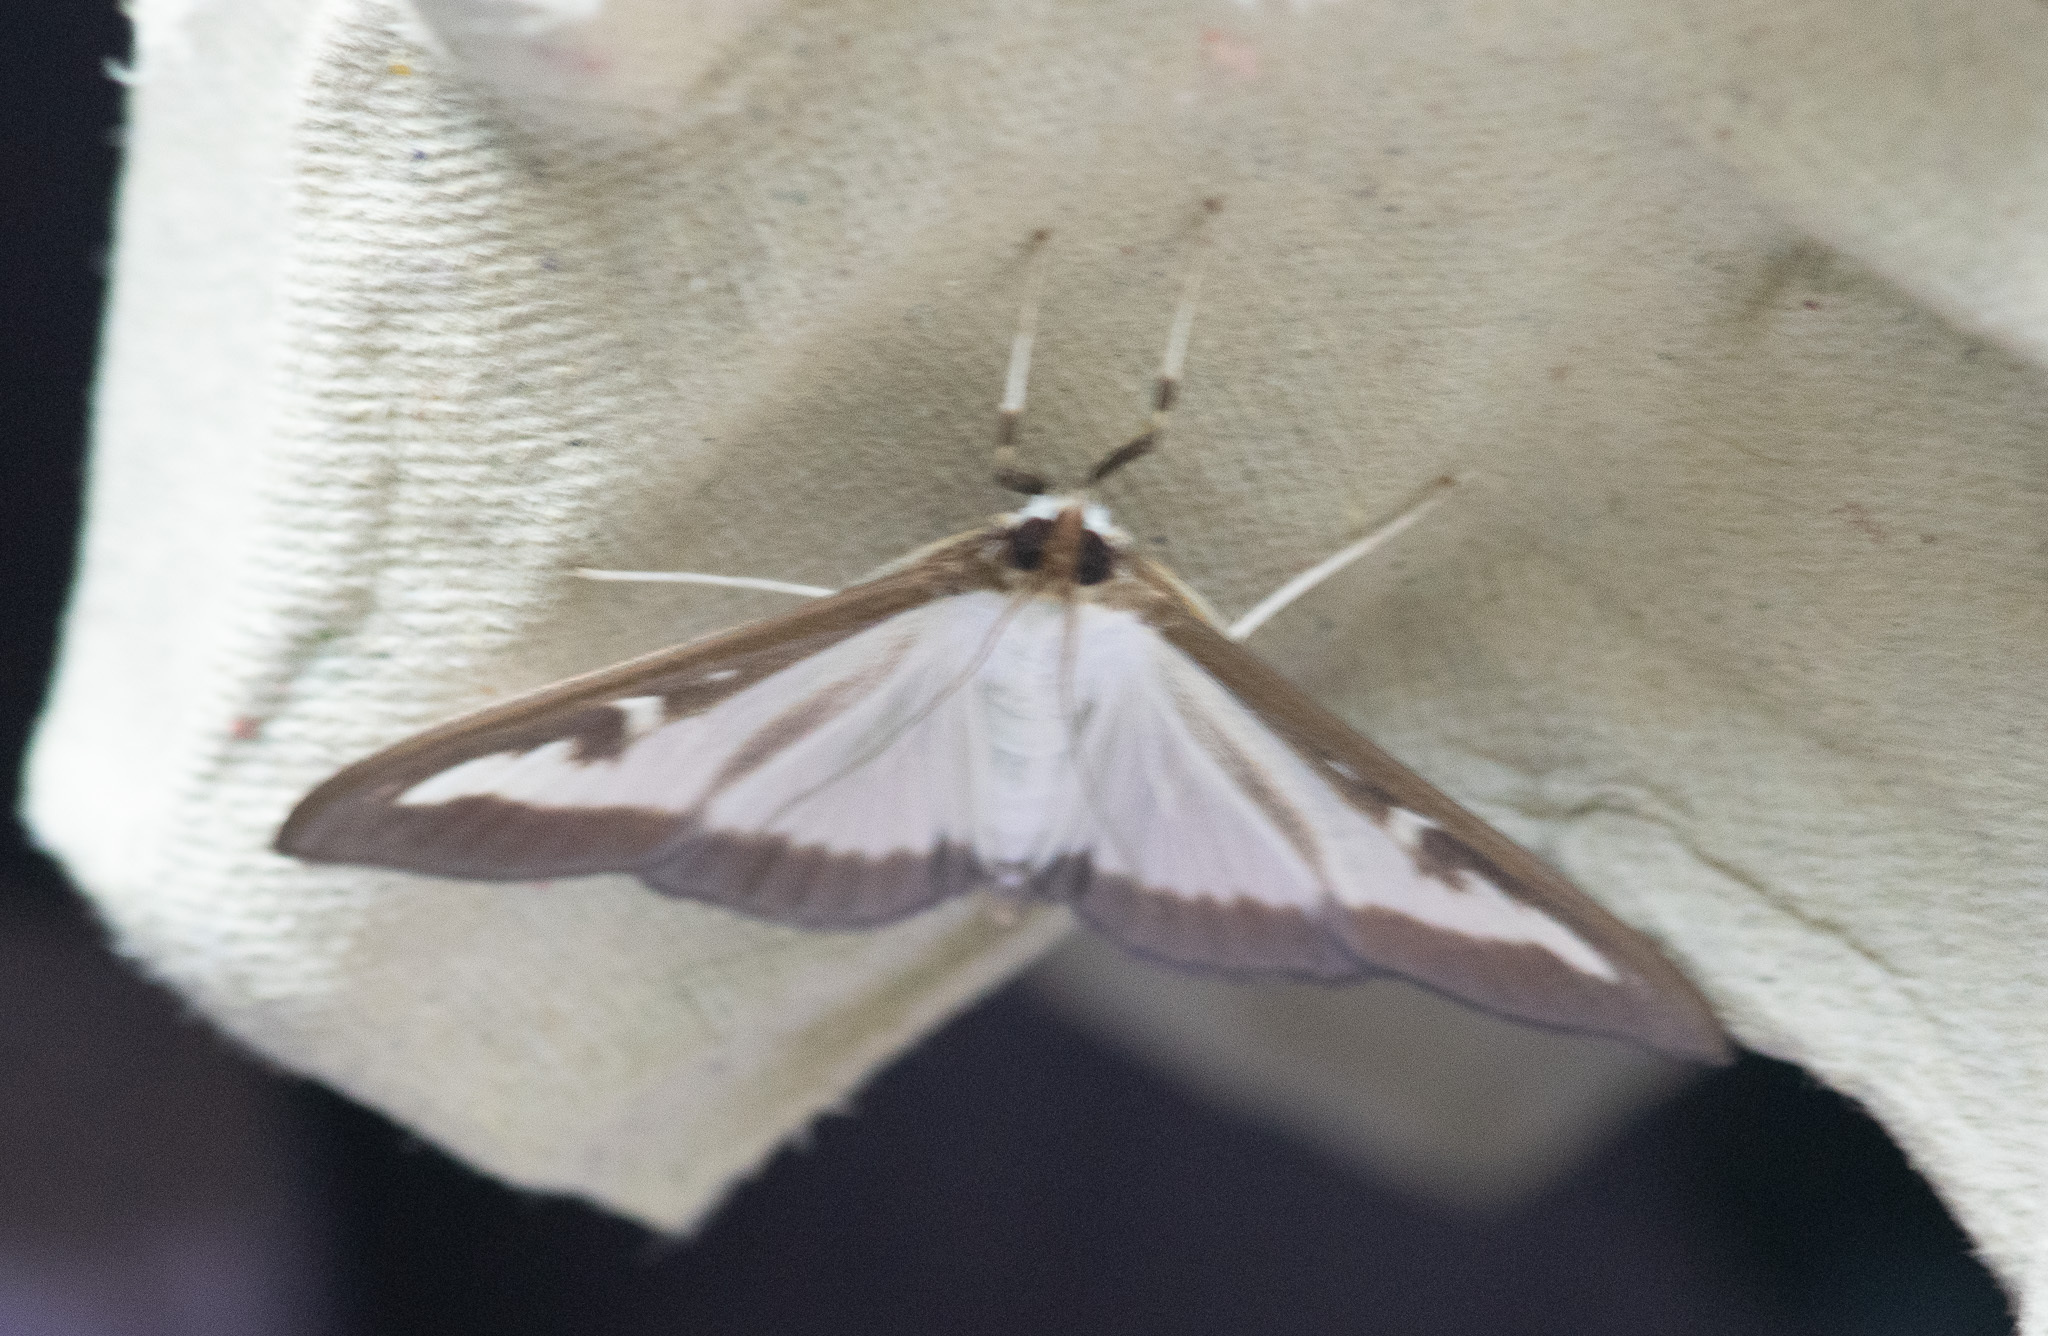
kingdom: Animalia
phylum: Arthropoda
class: Insecta
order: Lepidoptera
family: Crambidae
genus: Cydalima
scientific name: Cydalima perspectalis
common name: Box tree moth
